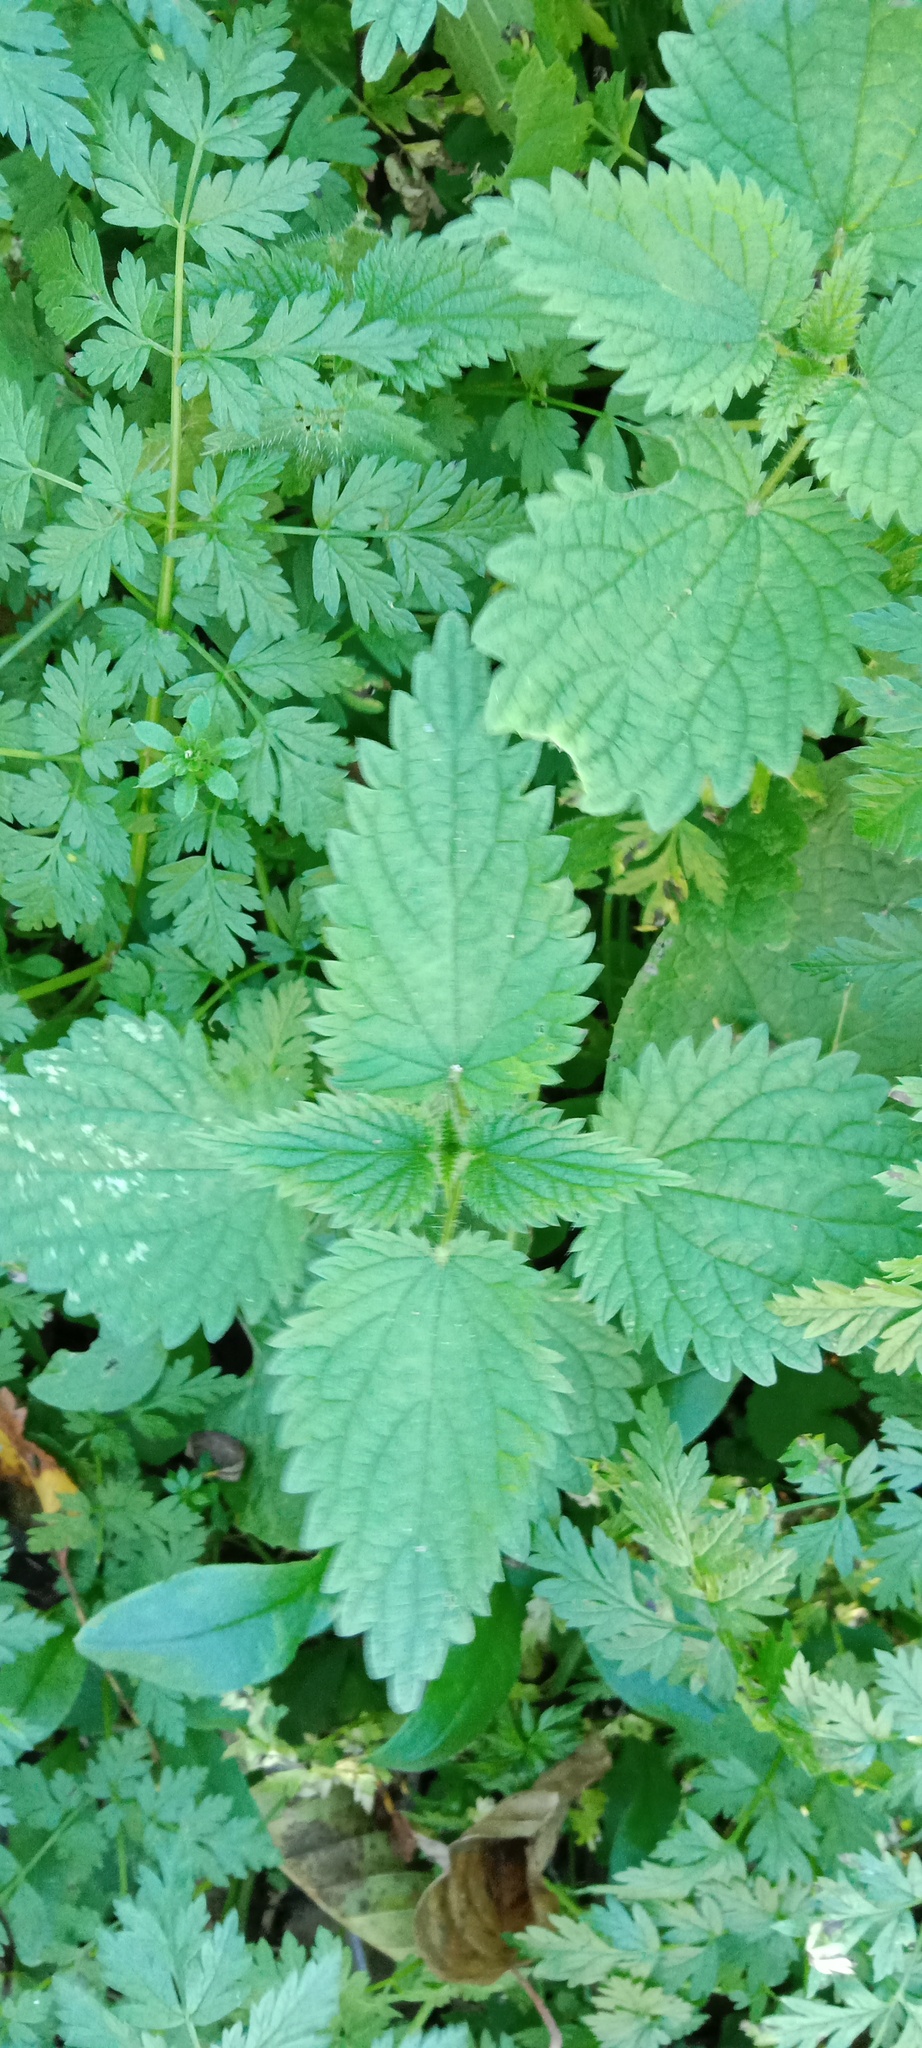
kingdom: Plantae
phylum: Tracheophyta
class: Magnoliopsida
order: Rosales
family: Urticaceae
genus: Urtica
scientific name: Urtica dioica
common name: Common nettle
